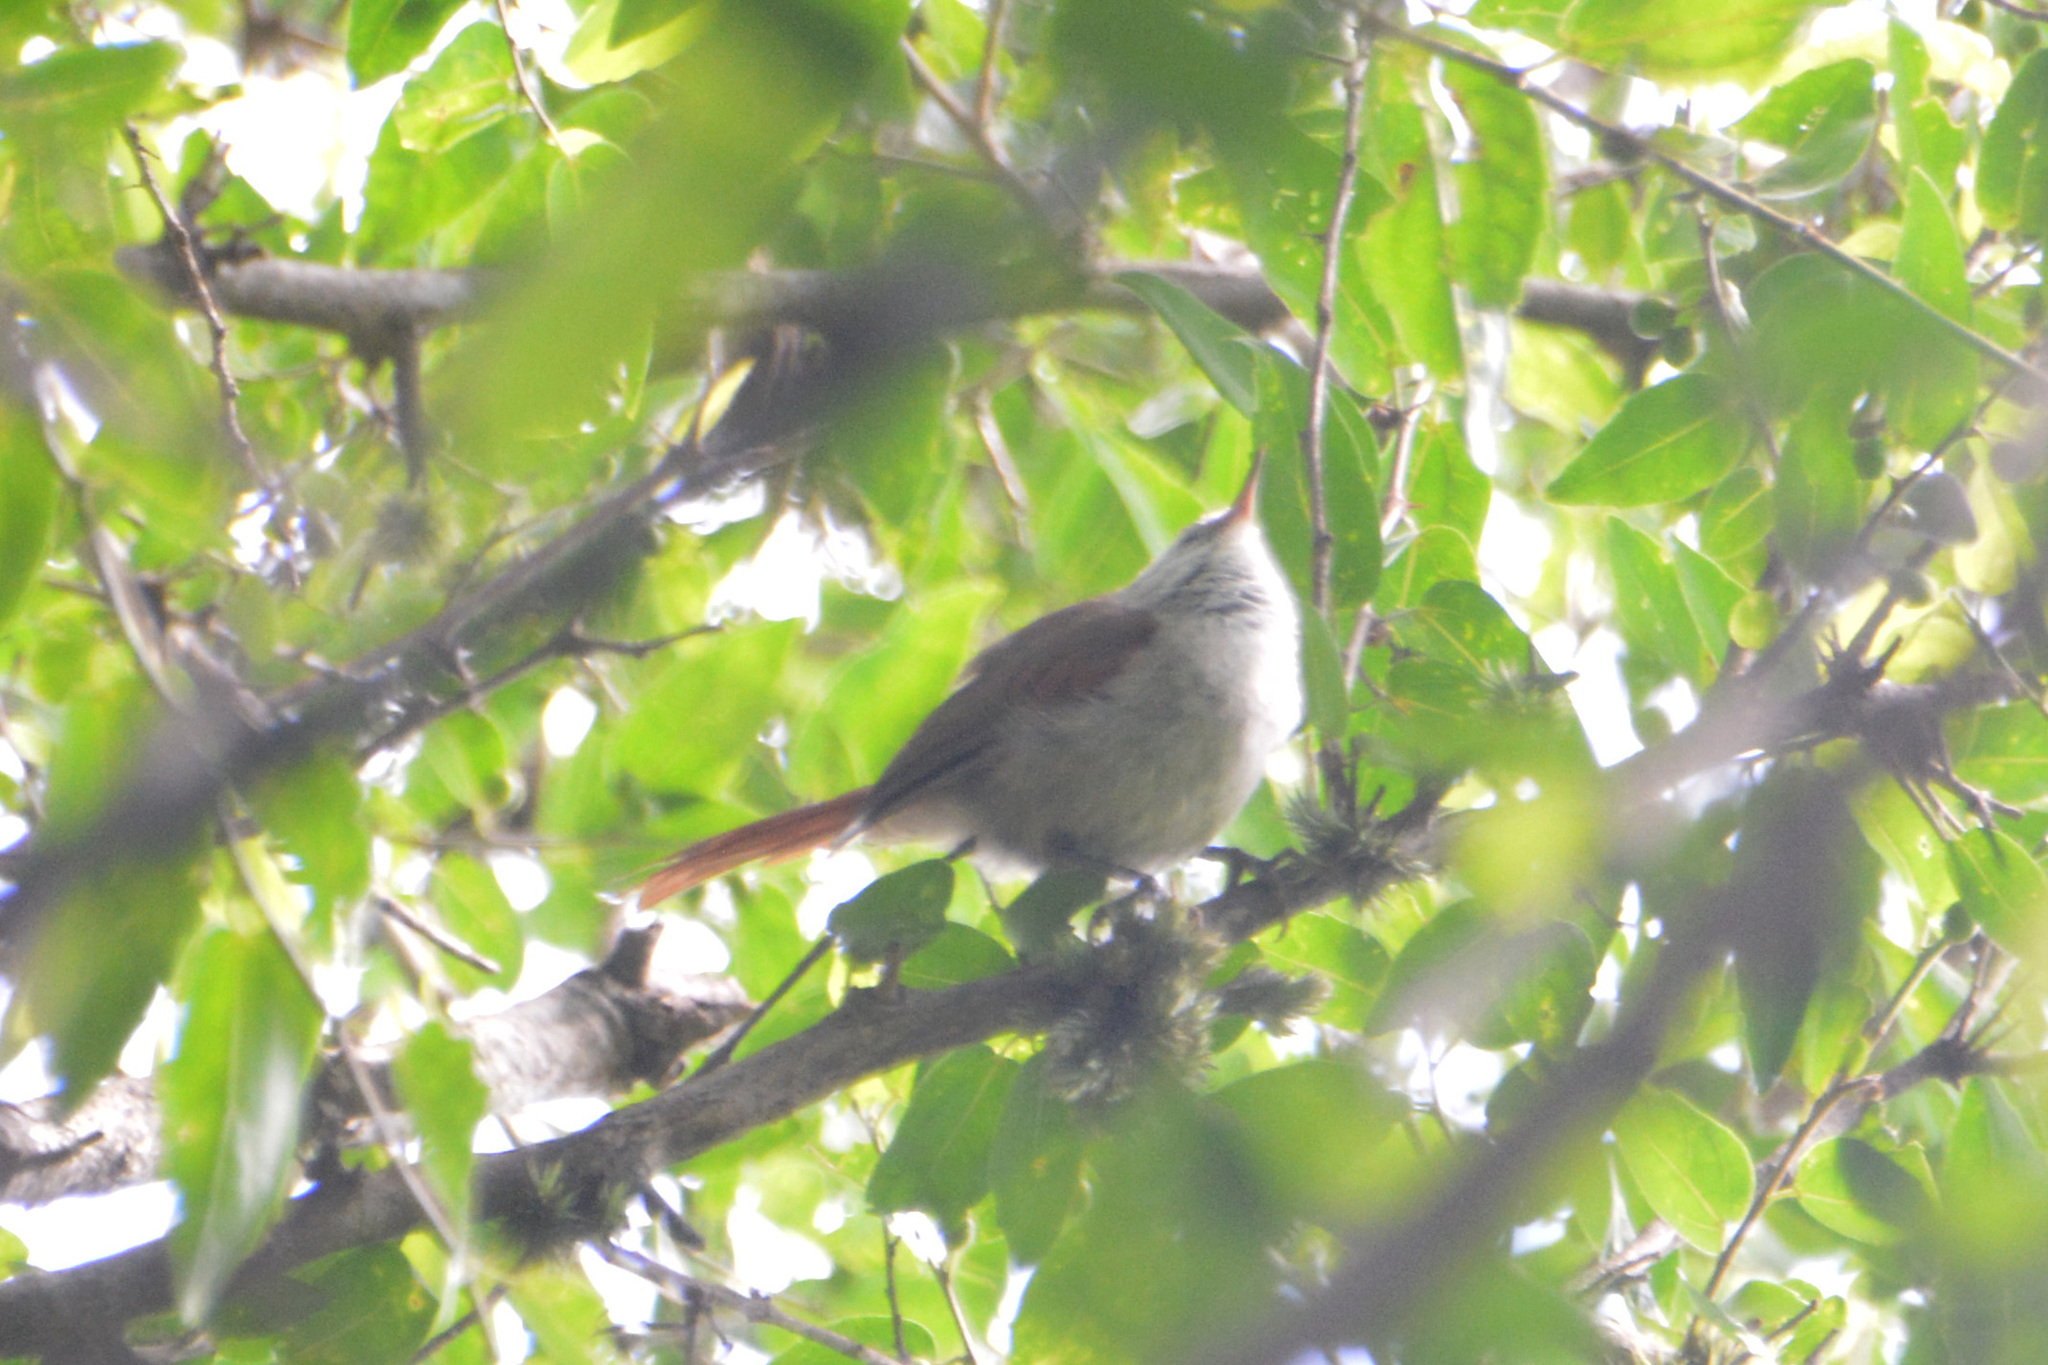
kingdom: Animalia
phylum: Chordata
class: Aves
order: Passeriformes
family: Furnariidae
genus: Cranioleuca
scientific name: Cranioleuca pyrrhophia
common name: Stripe-crowned spinetail
